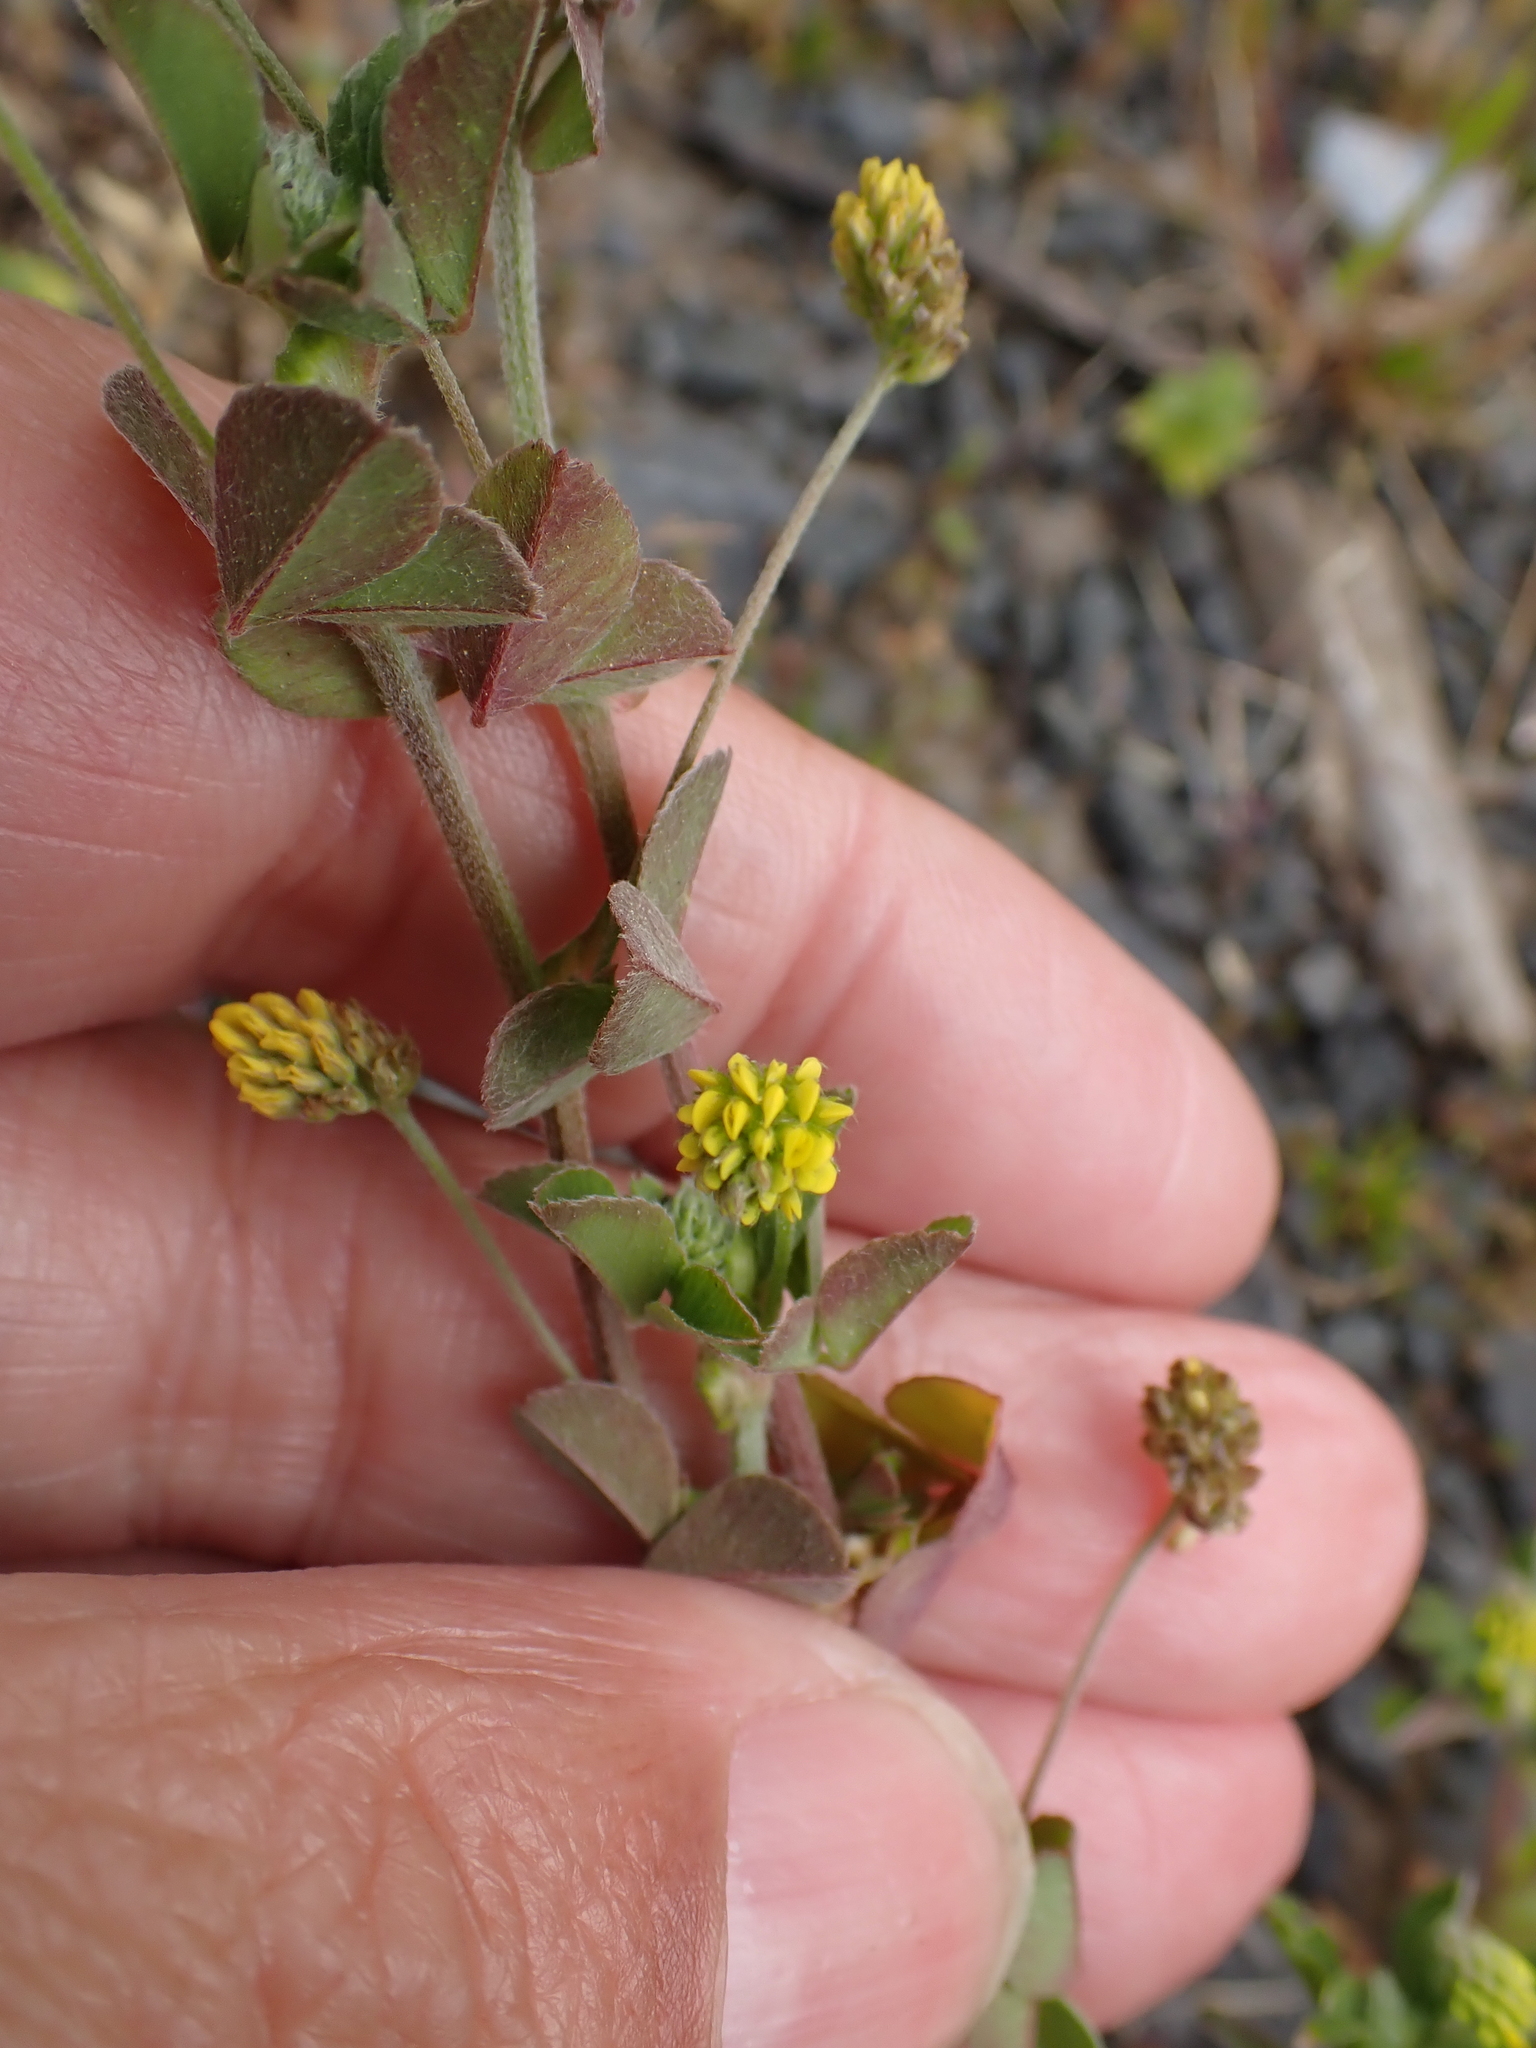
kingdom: Plantae
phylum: Tracheophyta
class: Magnoliopsida
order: Fabales
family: Fabaceae
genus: Medicago
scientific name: Medicago lupulina
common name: Black medick
